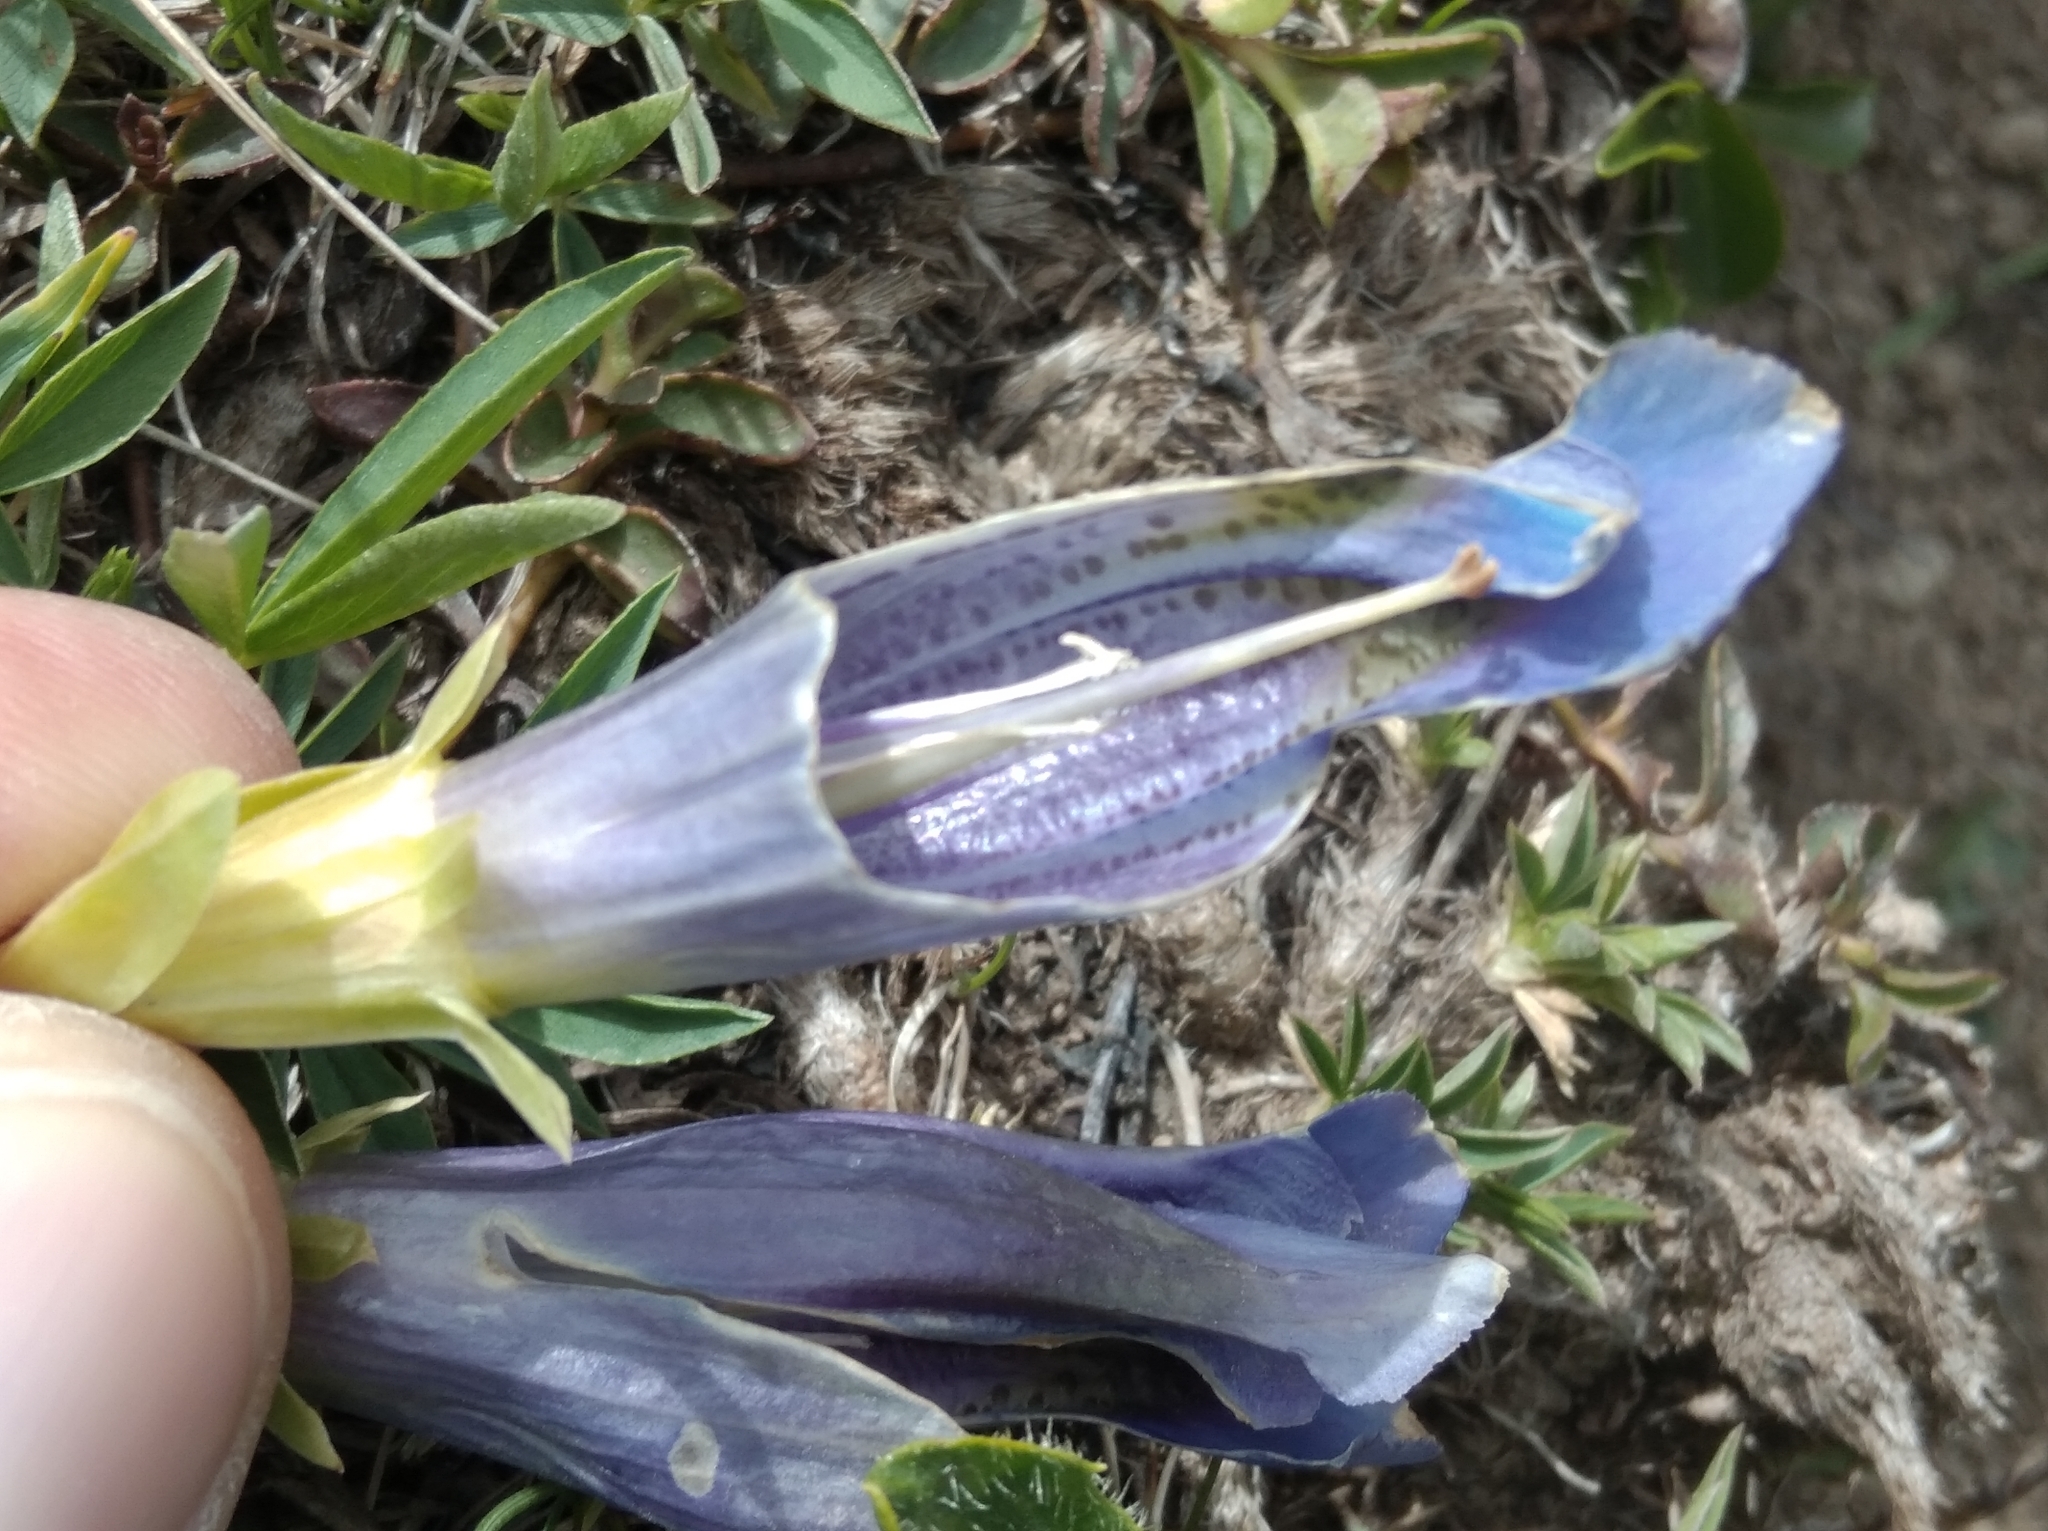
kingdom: Plantae
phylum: Tracheophyta
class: Magnoliopsida
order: Gentianales
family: Gentianaceae
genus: Gentiana
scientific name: Gentiana acaulis
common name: Trumpet gentian
